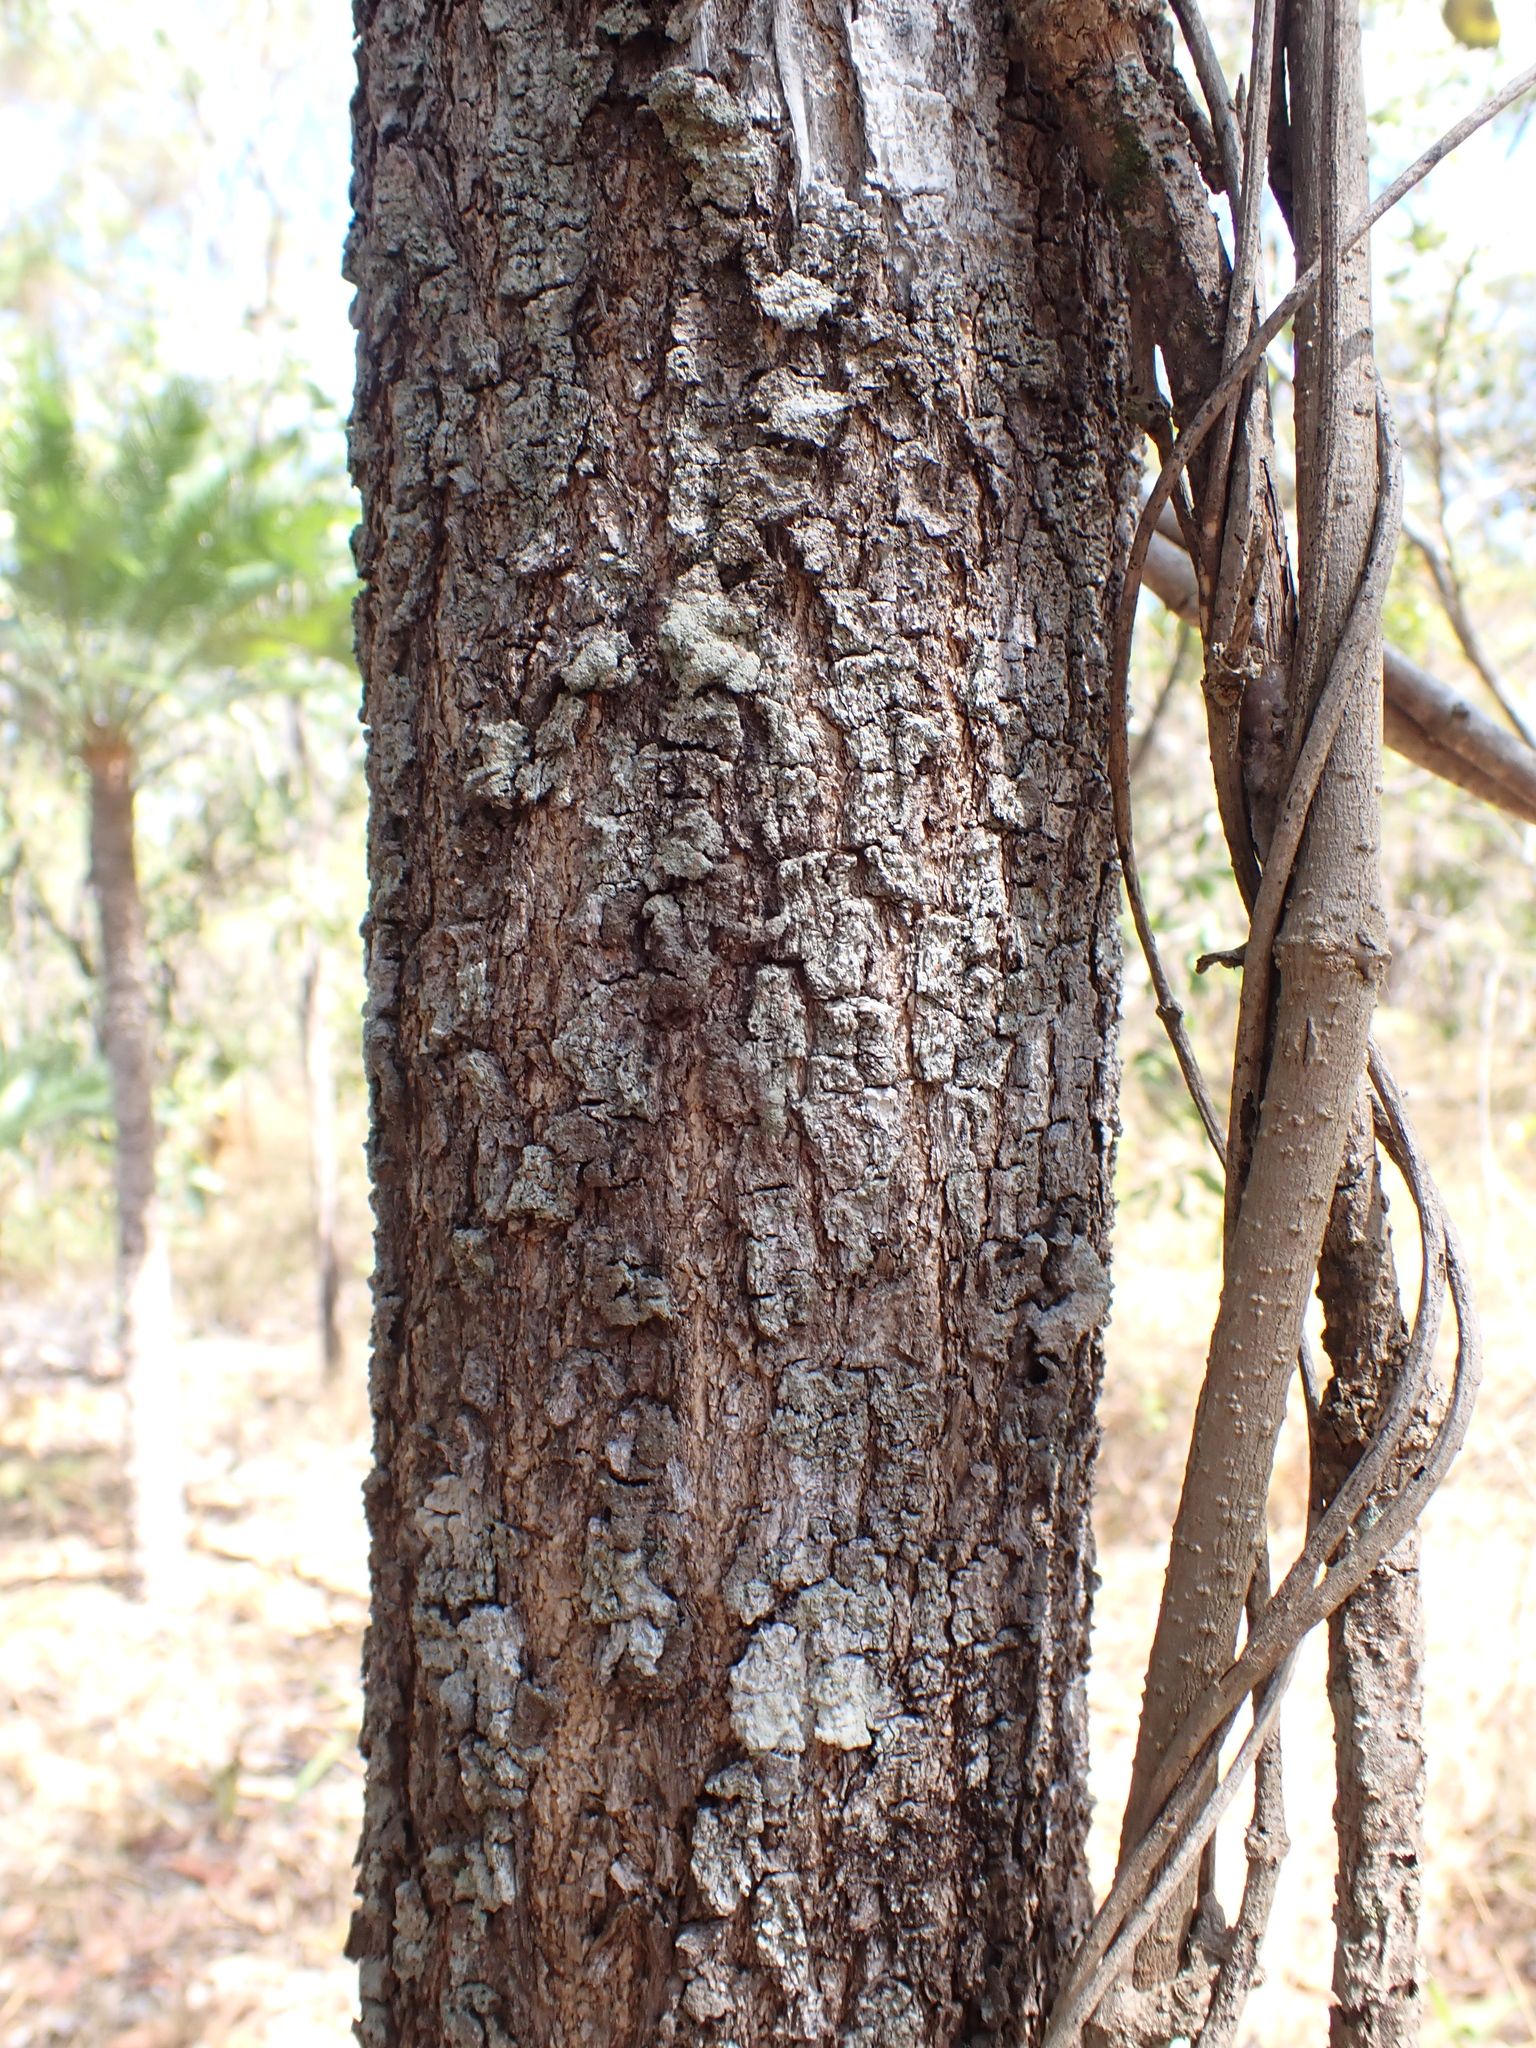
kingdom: Plantae
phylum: Tracheophyta
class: Magnoliopsida
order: Fabales
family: Fabaceae
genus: Acacia
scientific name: Acacia auriculiformis
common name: Earleaf acacia
